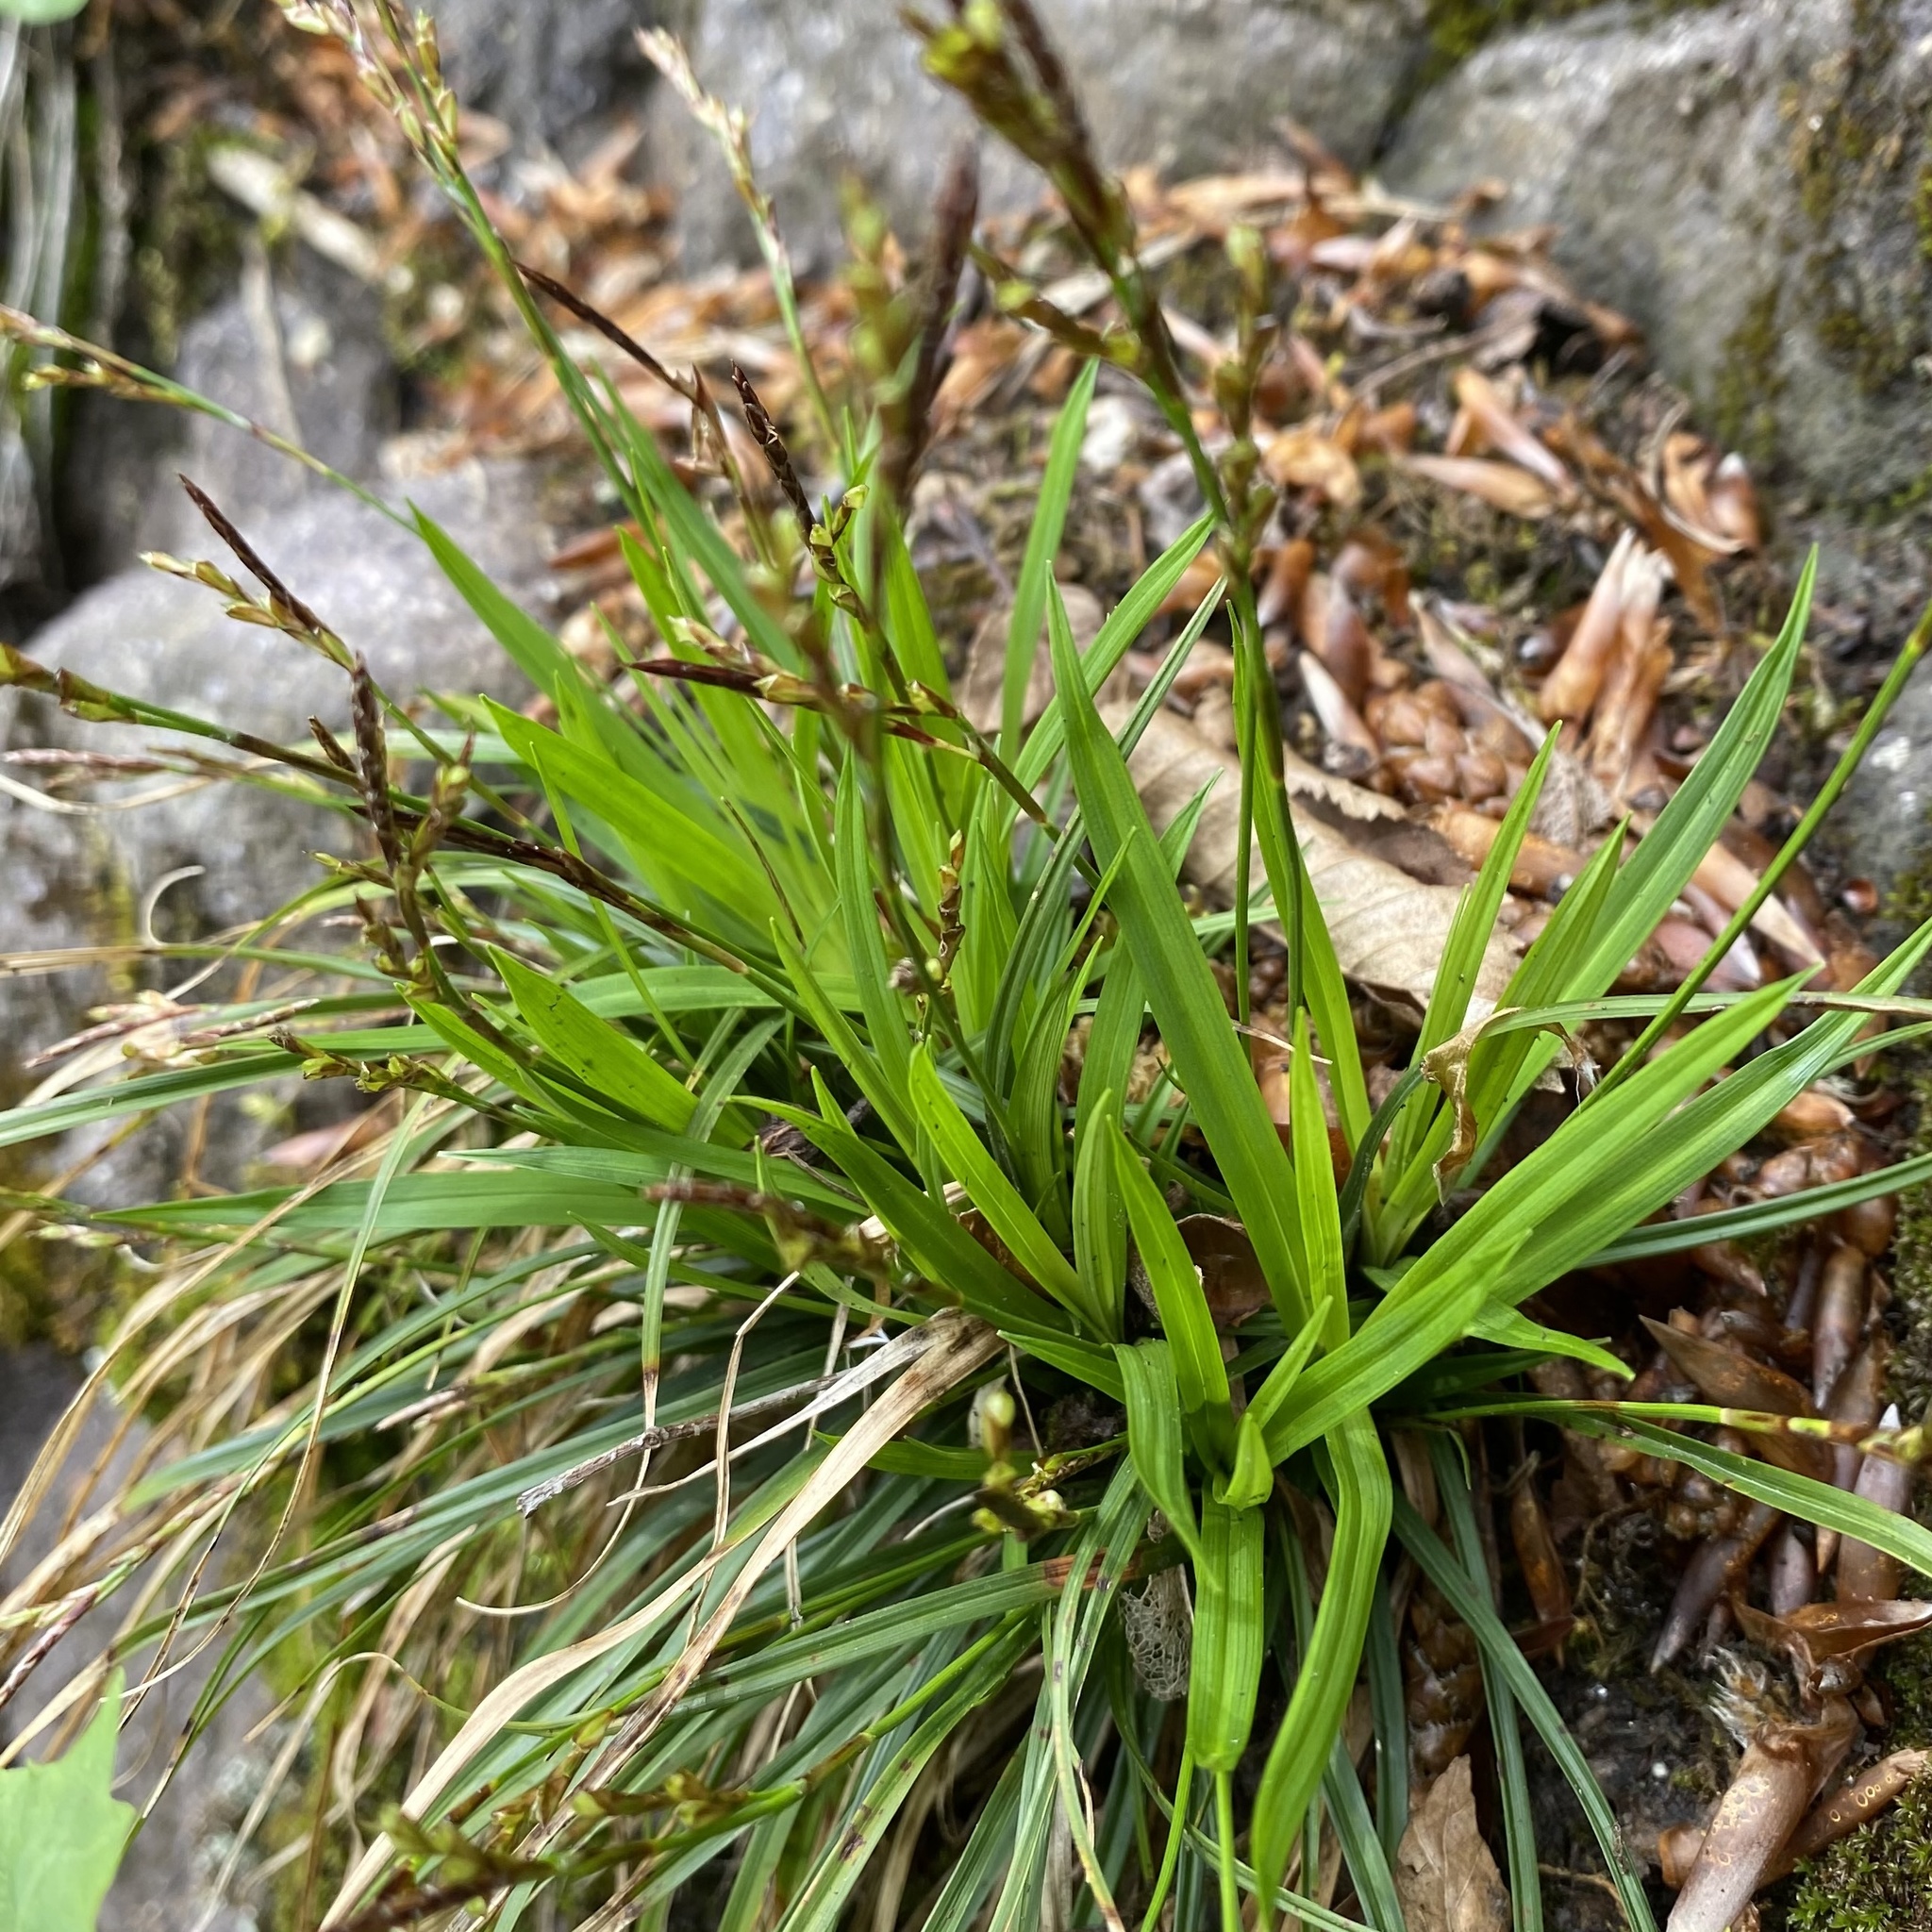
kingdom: Plantae
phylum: Tracheophyta
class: Liliopsida
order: Poales
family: Cyperaceae
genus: Carex
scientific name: Carex digitata
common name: Fingered sedge
